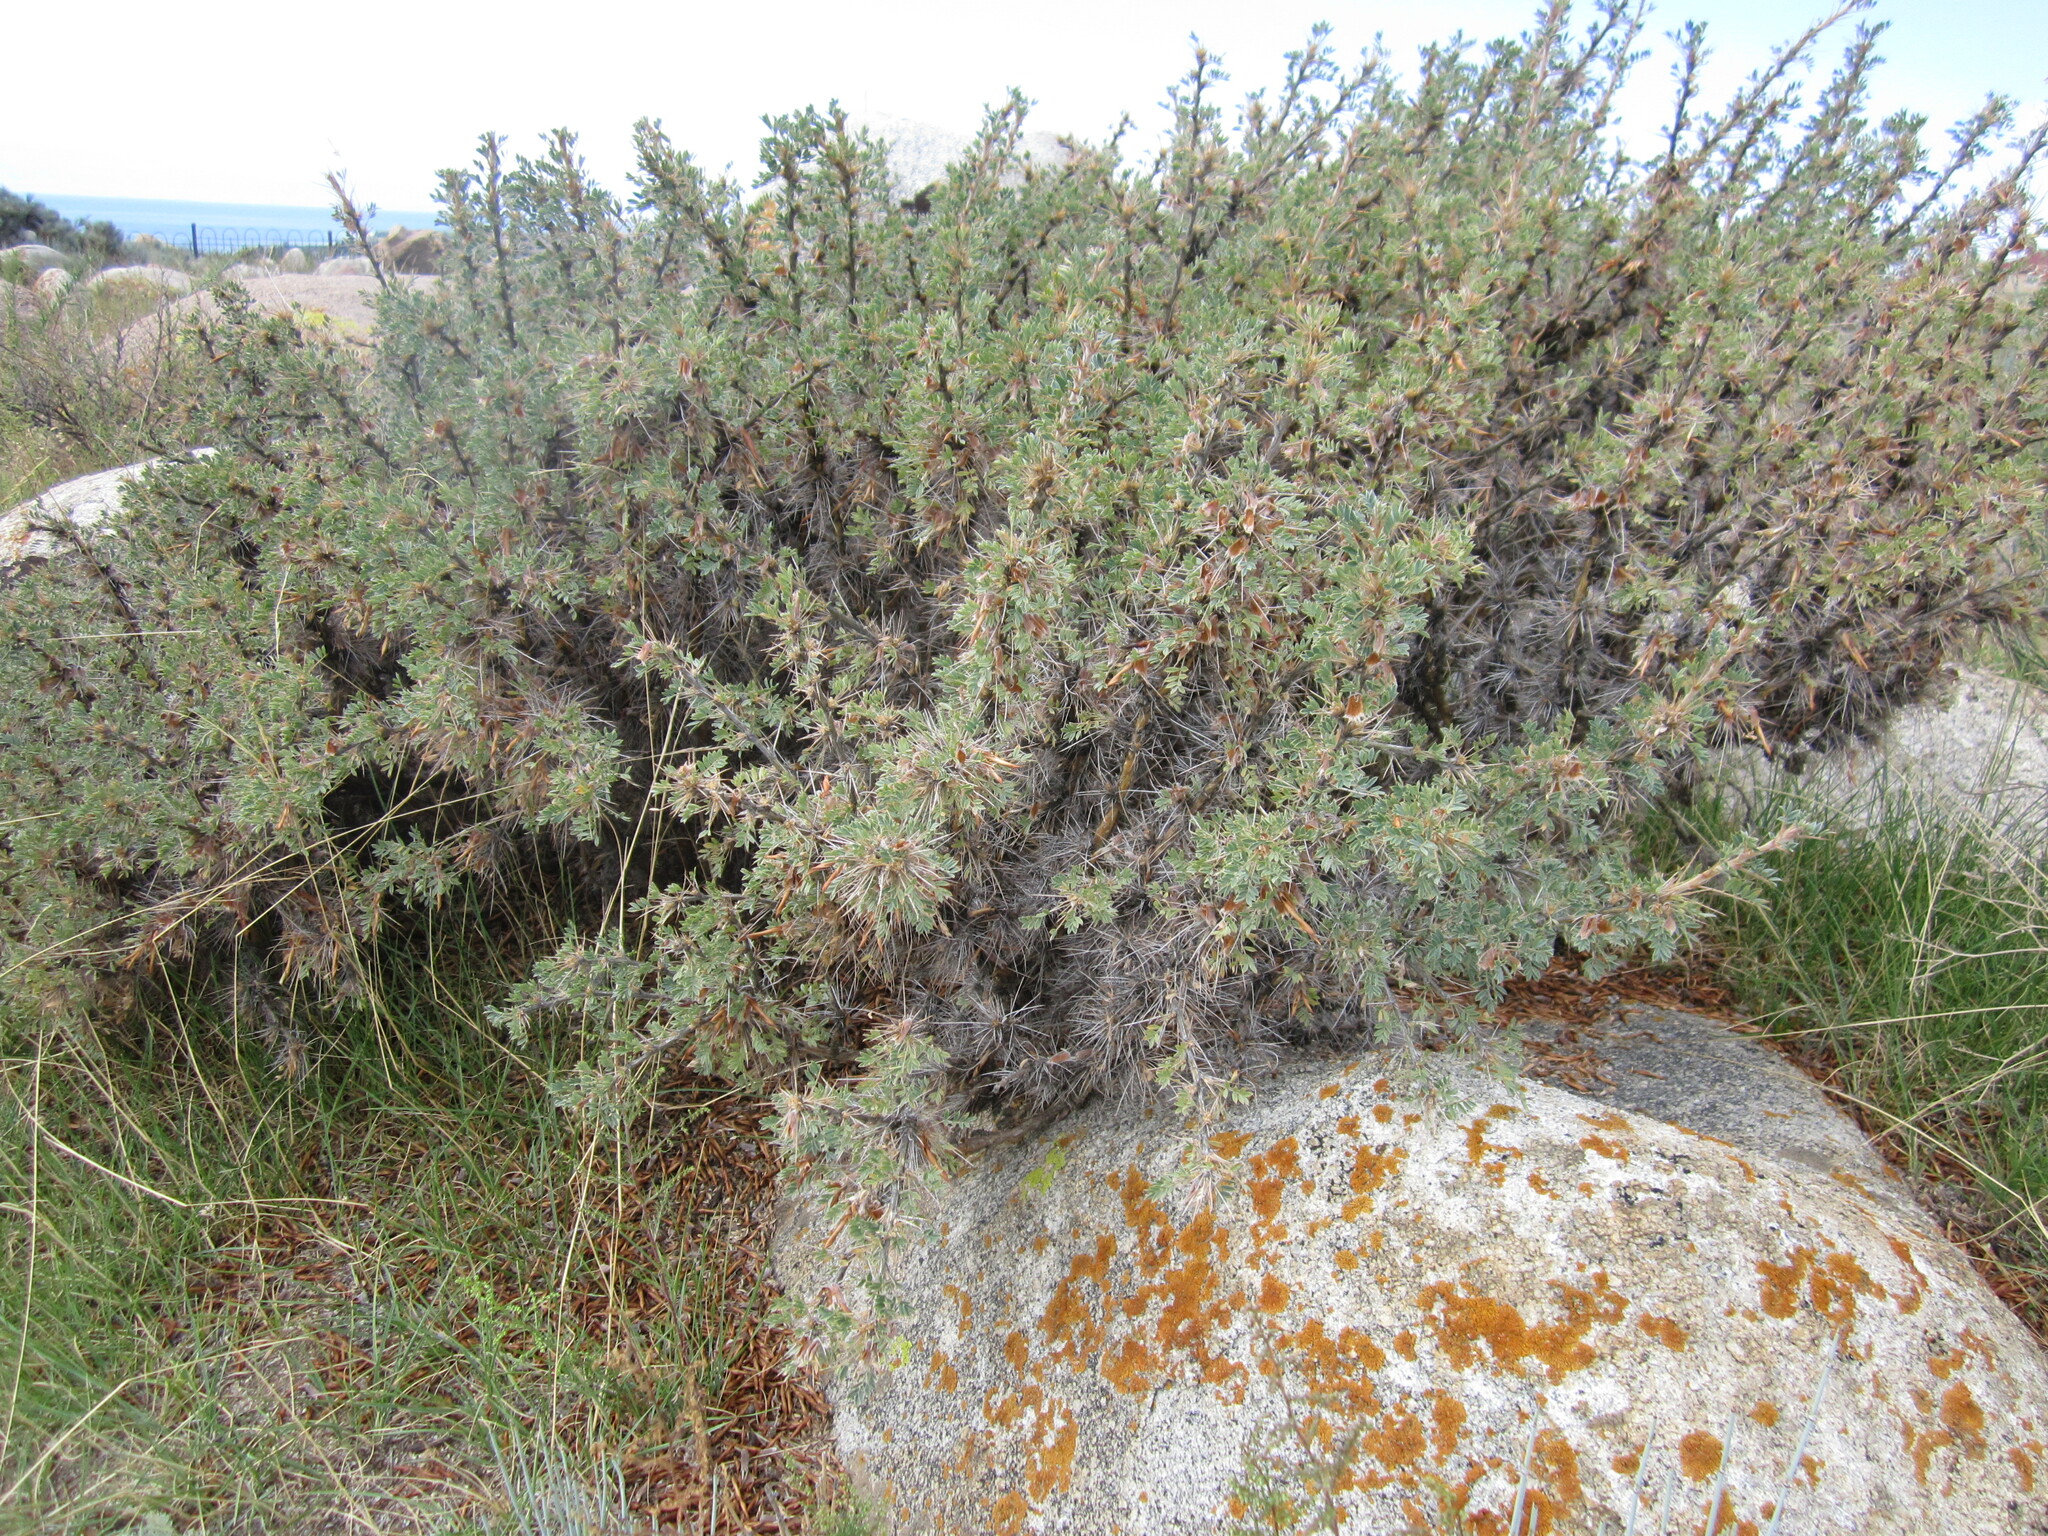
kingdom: Plantae
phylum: Tracheophyta
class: Magnoliopsida
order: Fabales
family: Fabaceae
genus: Caragana
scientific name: Caragana jubata
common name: Shag-spine peashrub
